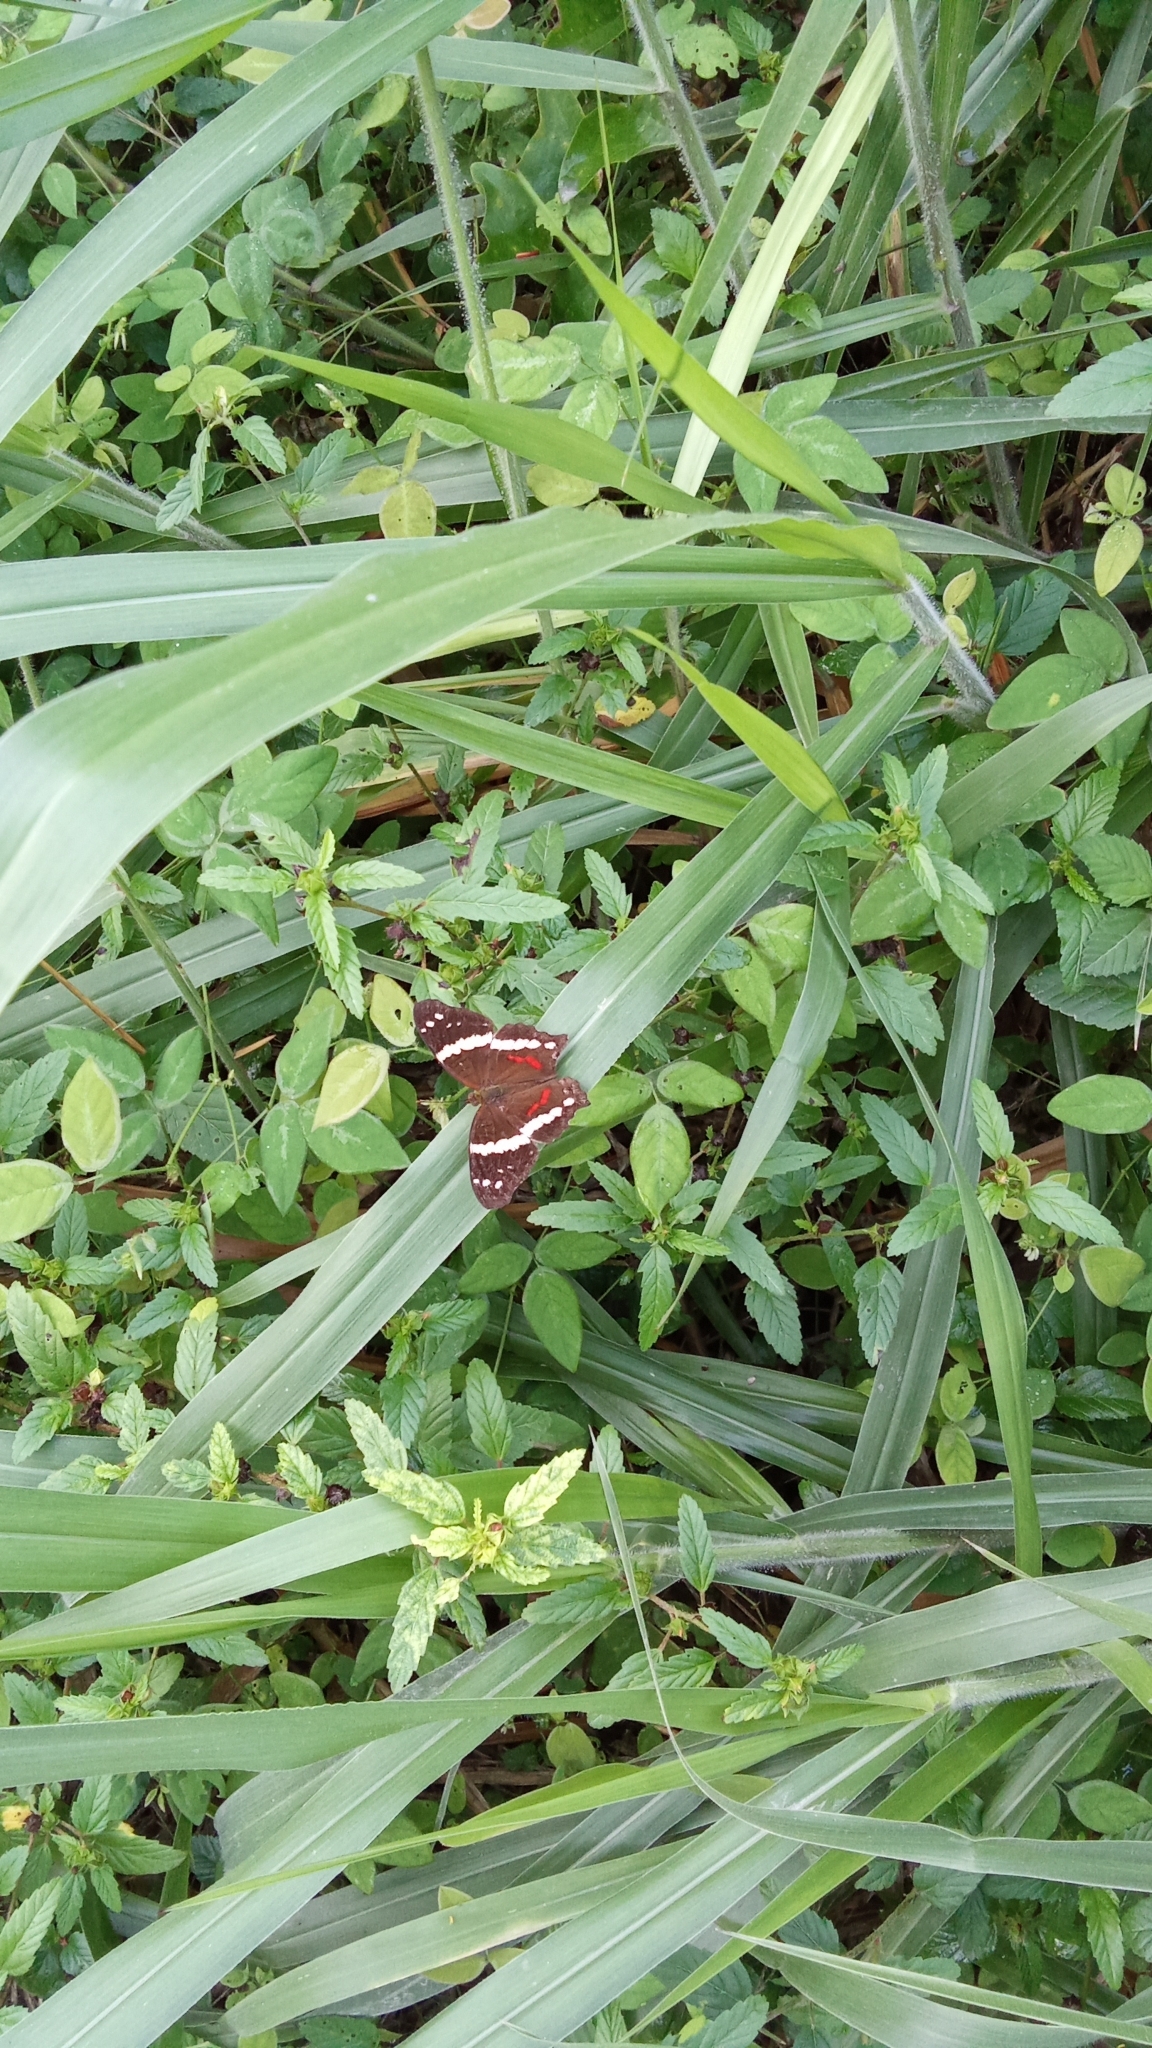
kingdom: Animalia
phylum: Arthropoda
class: Insecta
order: Lepidoptera
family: Nymphalidae
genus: Anartia
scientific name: Anartia fatima
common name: Banded peacock
